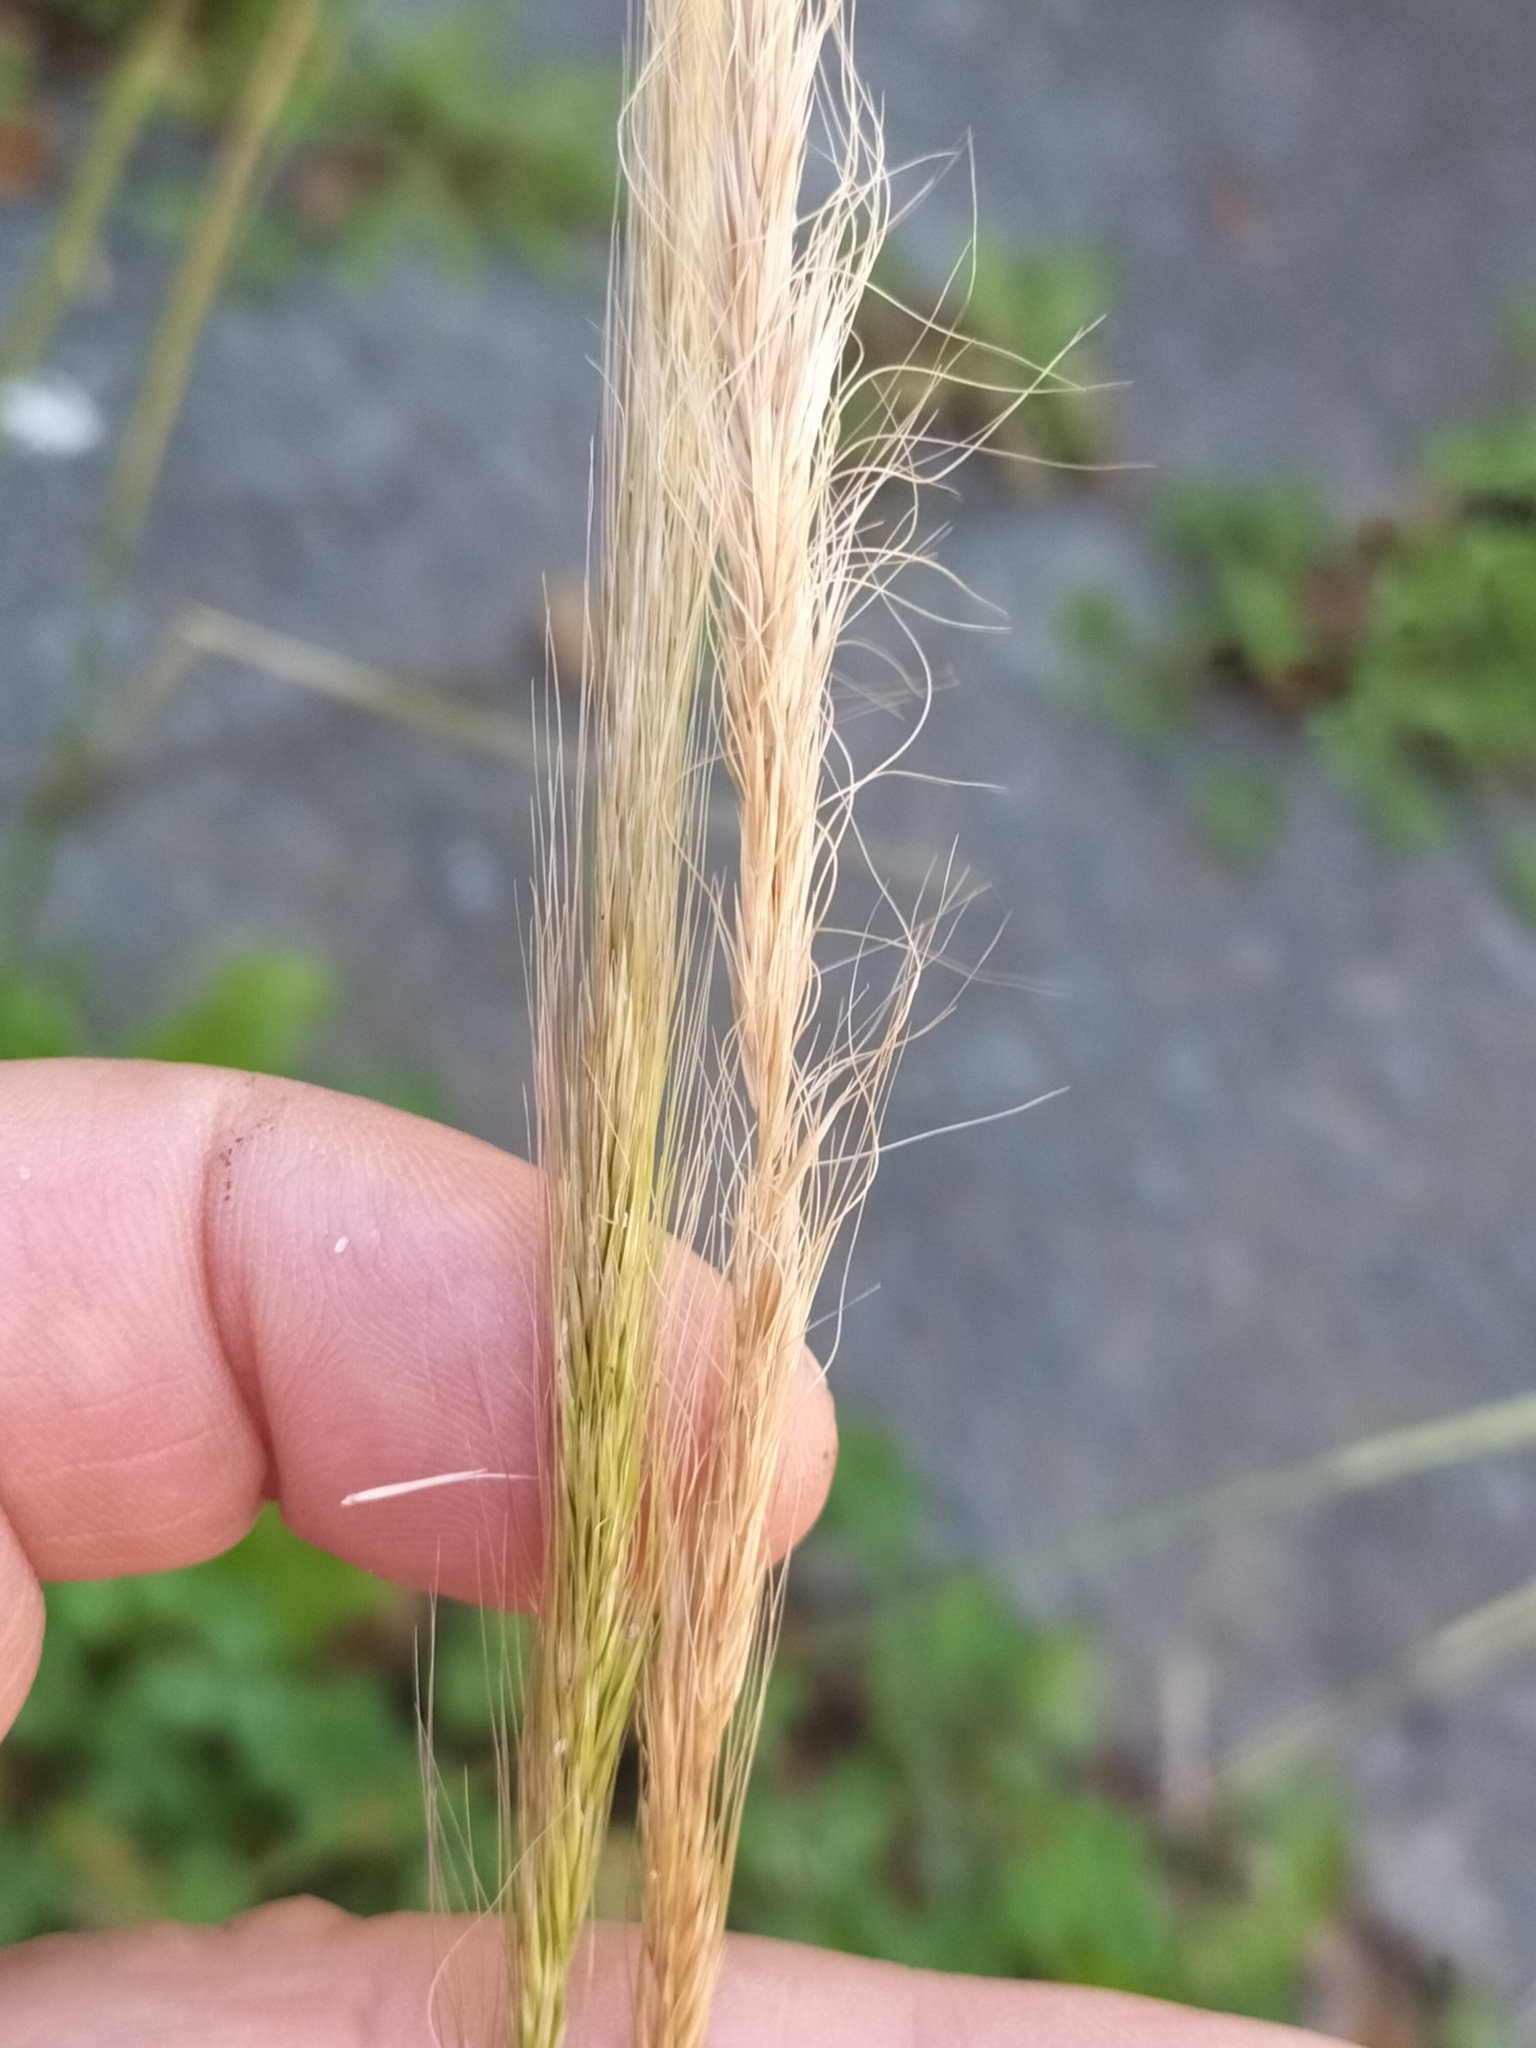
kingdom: Plantae
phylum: Tracheophyta
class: Liliopsida
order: Poales
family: Poaceae
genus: Dichelachne
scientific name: Dichelachne crinita
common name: Clovenfoot plumegrass
